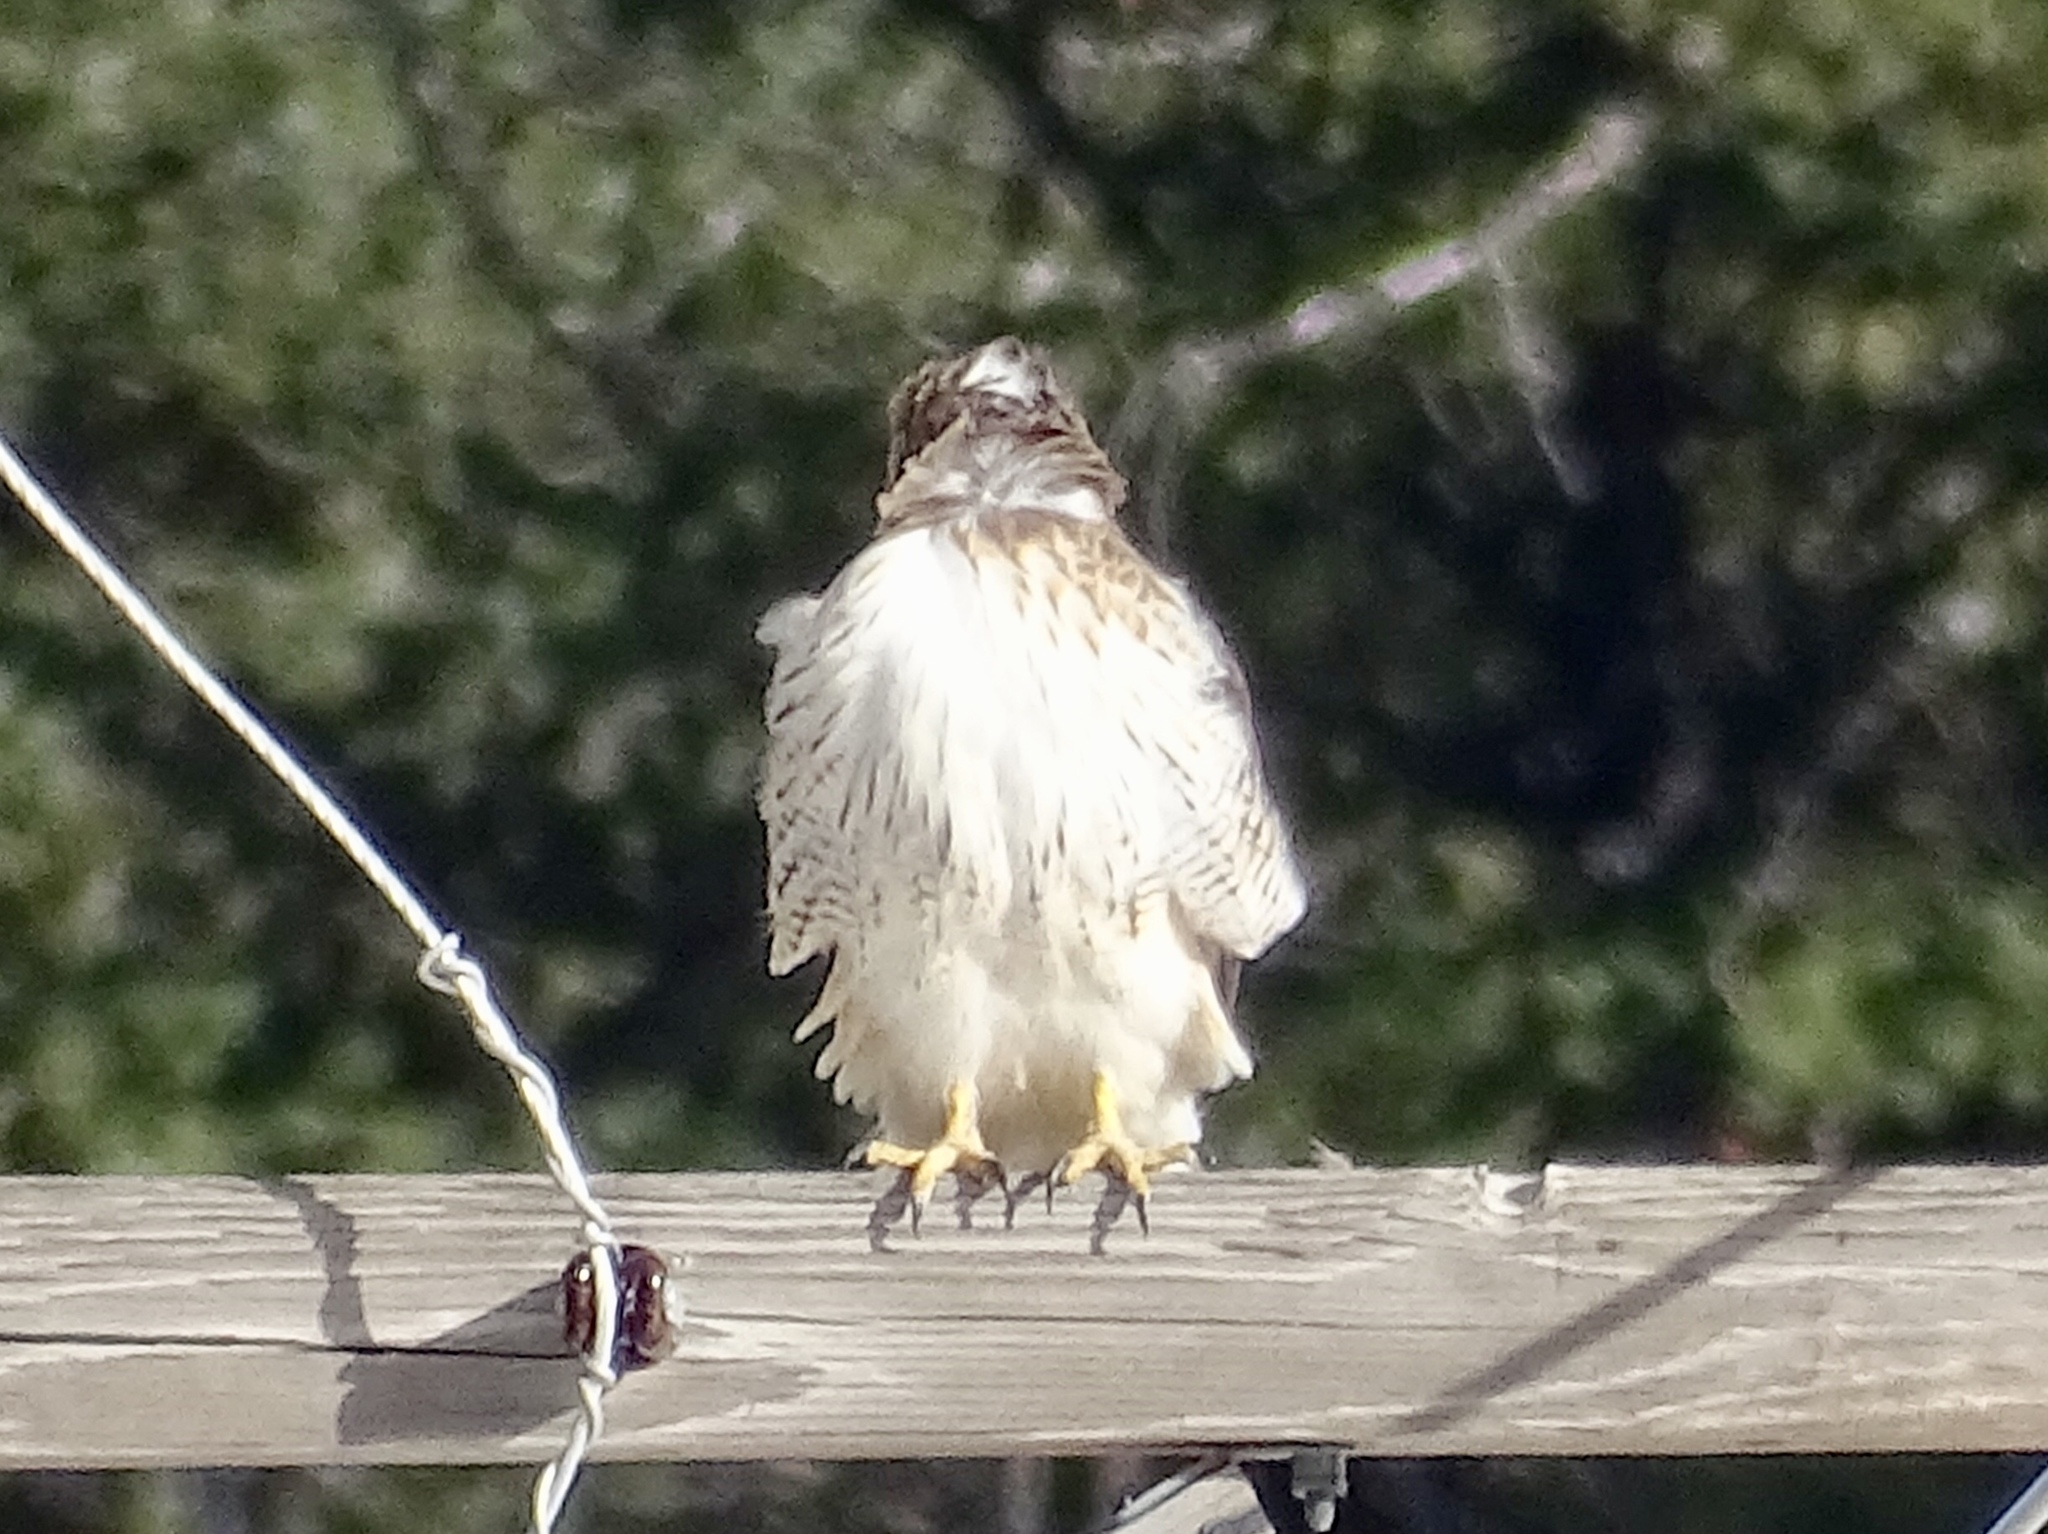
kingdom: Animalia
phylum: Chordata
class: Aves
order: Accipitriformes
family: Accipitridae
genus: Buteo
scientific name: Buteo jamaicensis
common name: Red-tailed hawk
